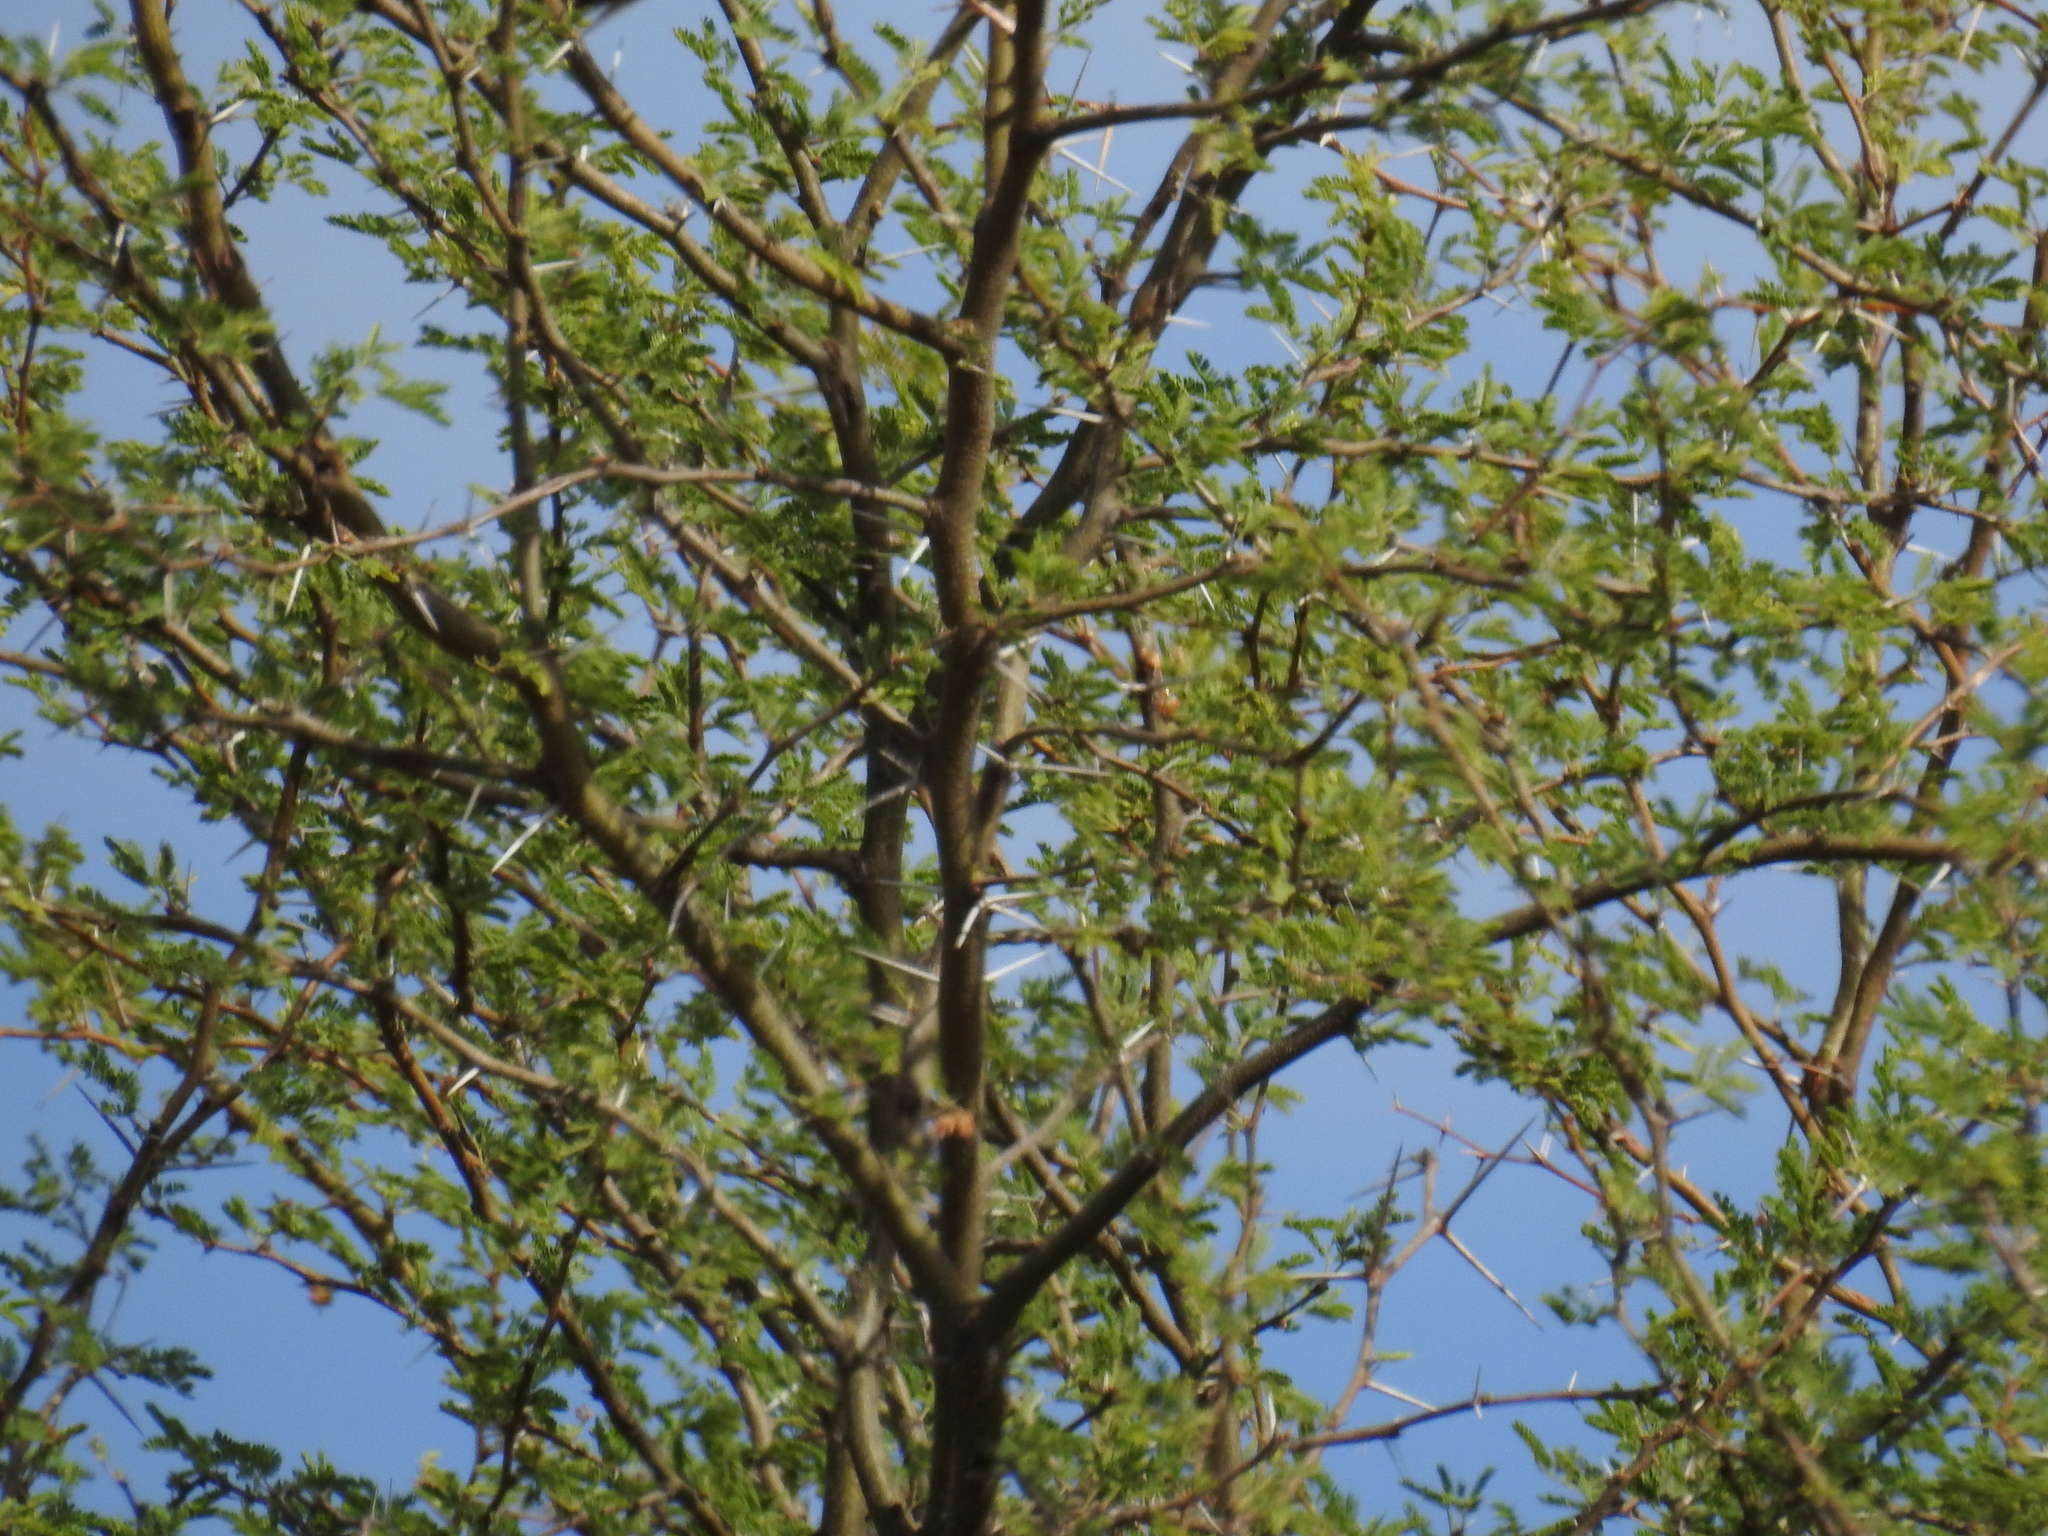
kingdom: Plantae
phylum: Tracheophyta
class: Magnoliopsida
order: Fabales
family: Fabaceae
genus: Vachellia
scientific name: Vachellia schaffneri
